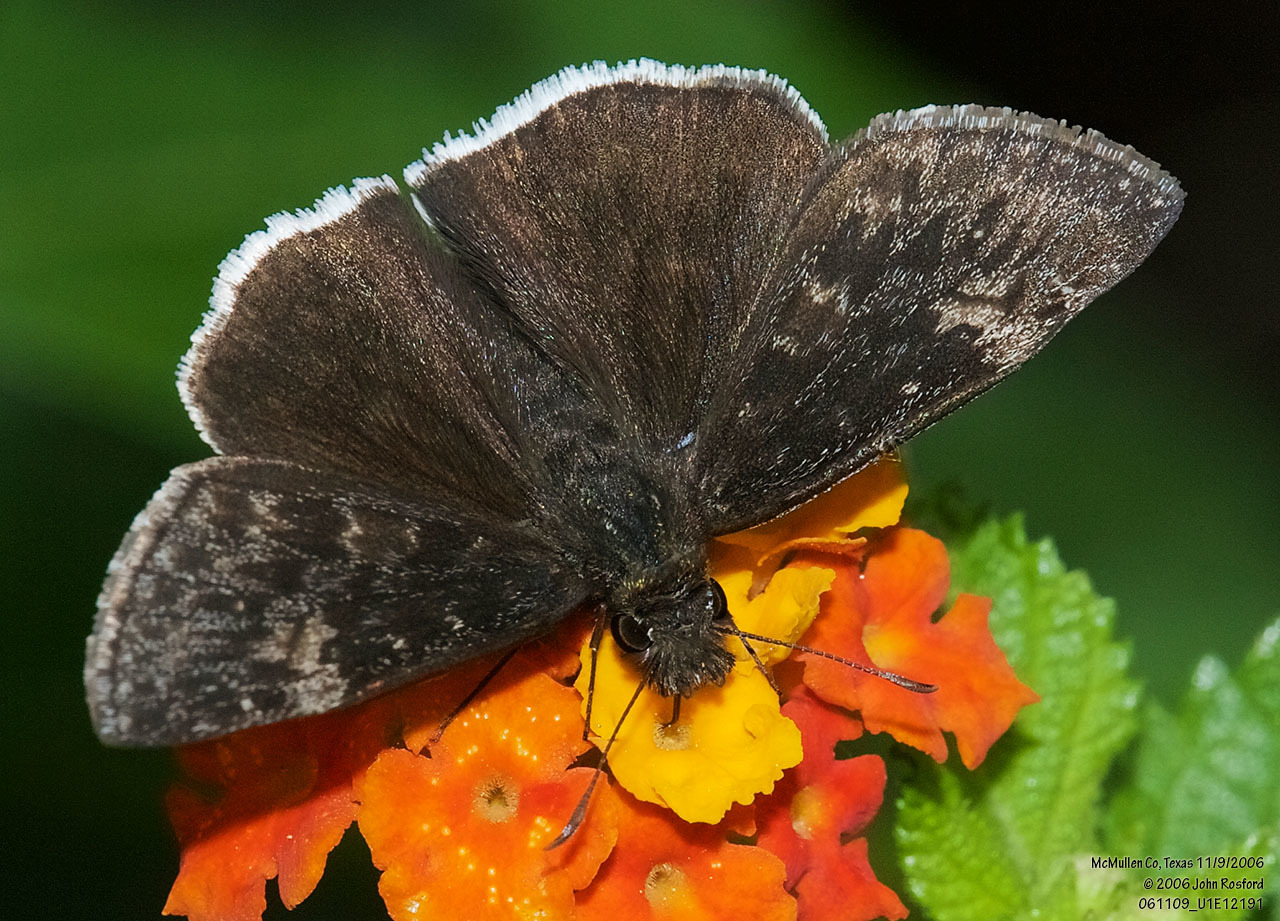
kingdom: Animalia
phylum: Arthropoda
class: Insecta
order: Lepidoptera
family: Hesperiidae
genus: Erynnis
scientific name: Erynnis funeralis
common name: Funereal duskywing
